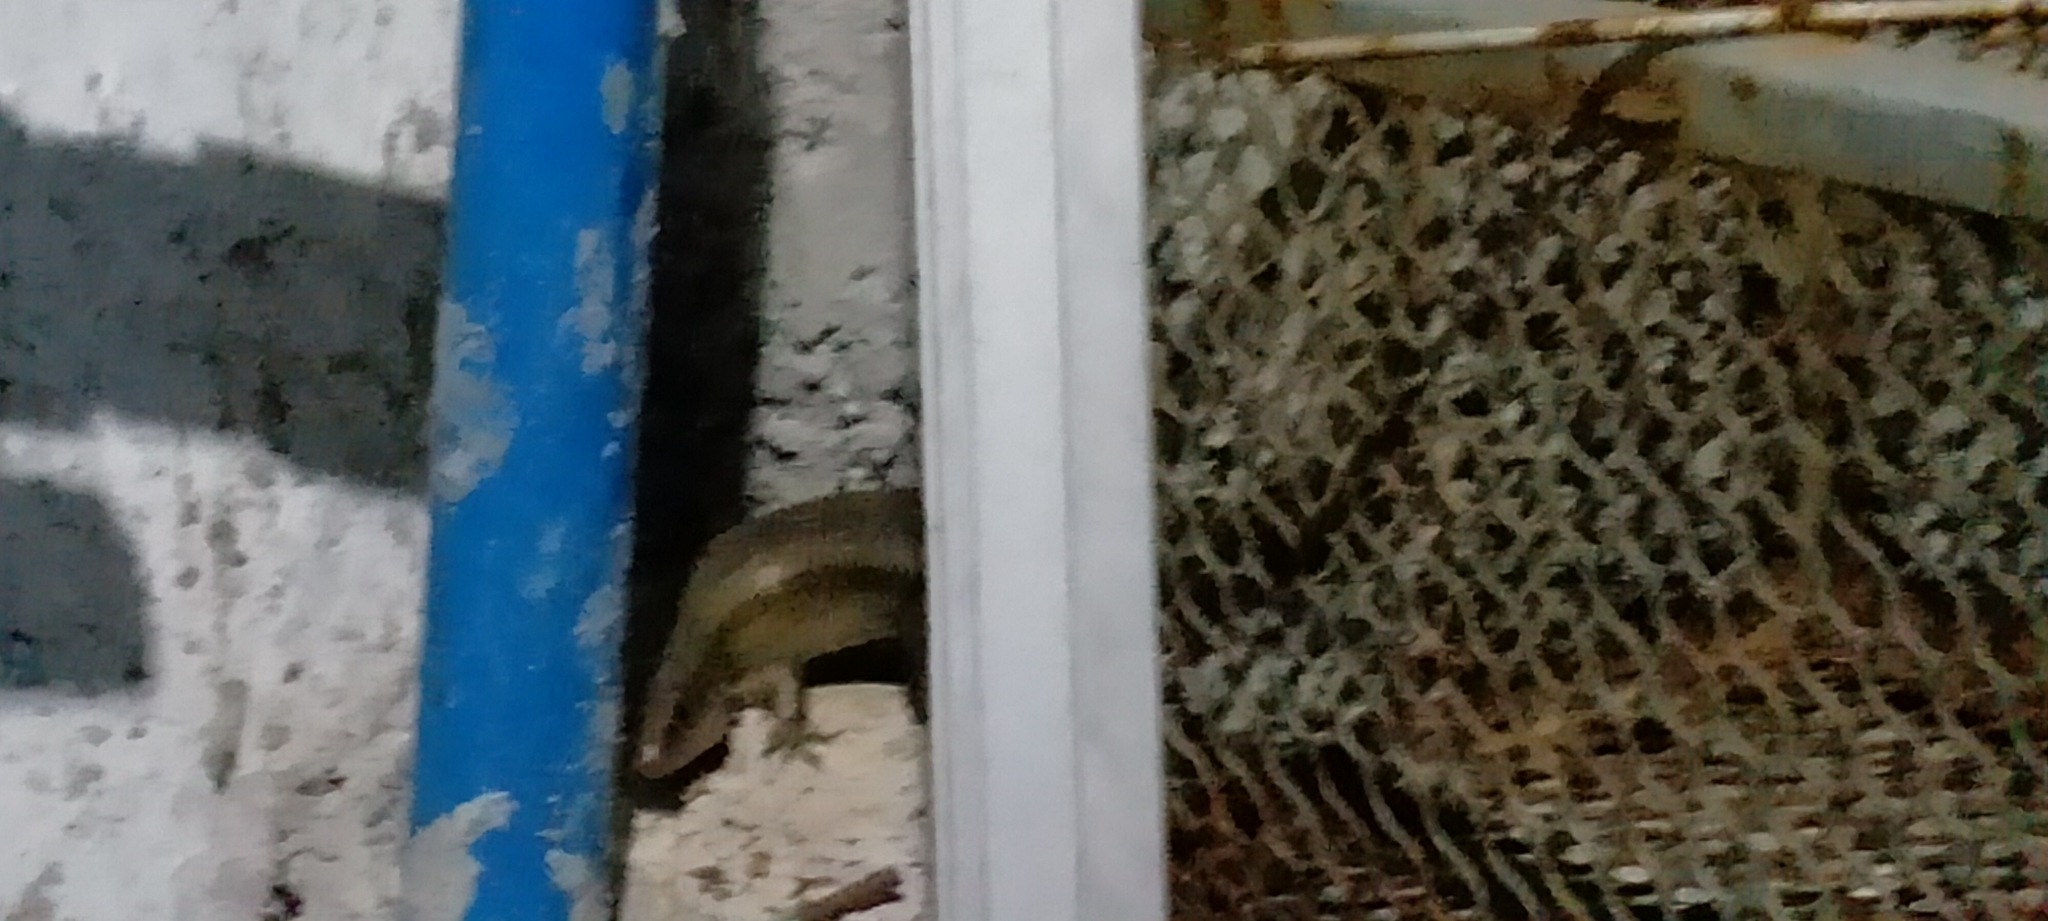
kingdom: Animalia
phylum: Chordata
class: Squamata
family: Scincidae
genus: Eutropis
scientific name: Eutropis multifasciata
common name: Common mabuya
